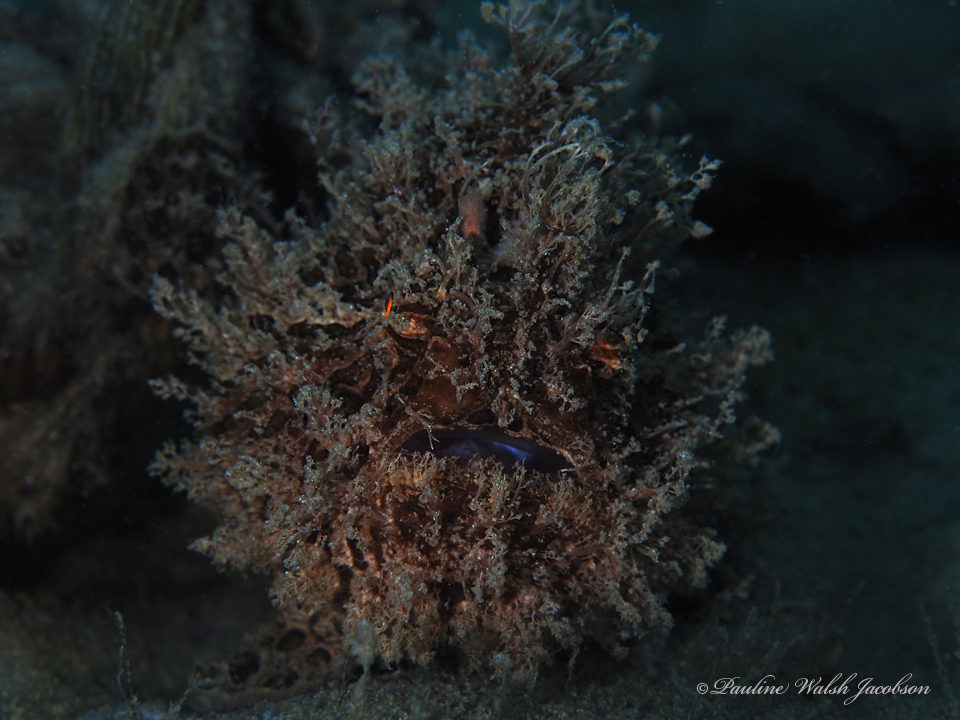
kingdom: Animalia
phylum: Chordata
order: Lophiiformes
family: Antennariidae
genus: Antennarius
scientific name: Antennarius striatus
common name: Striated frogfish
